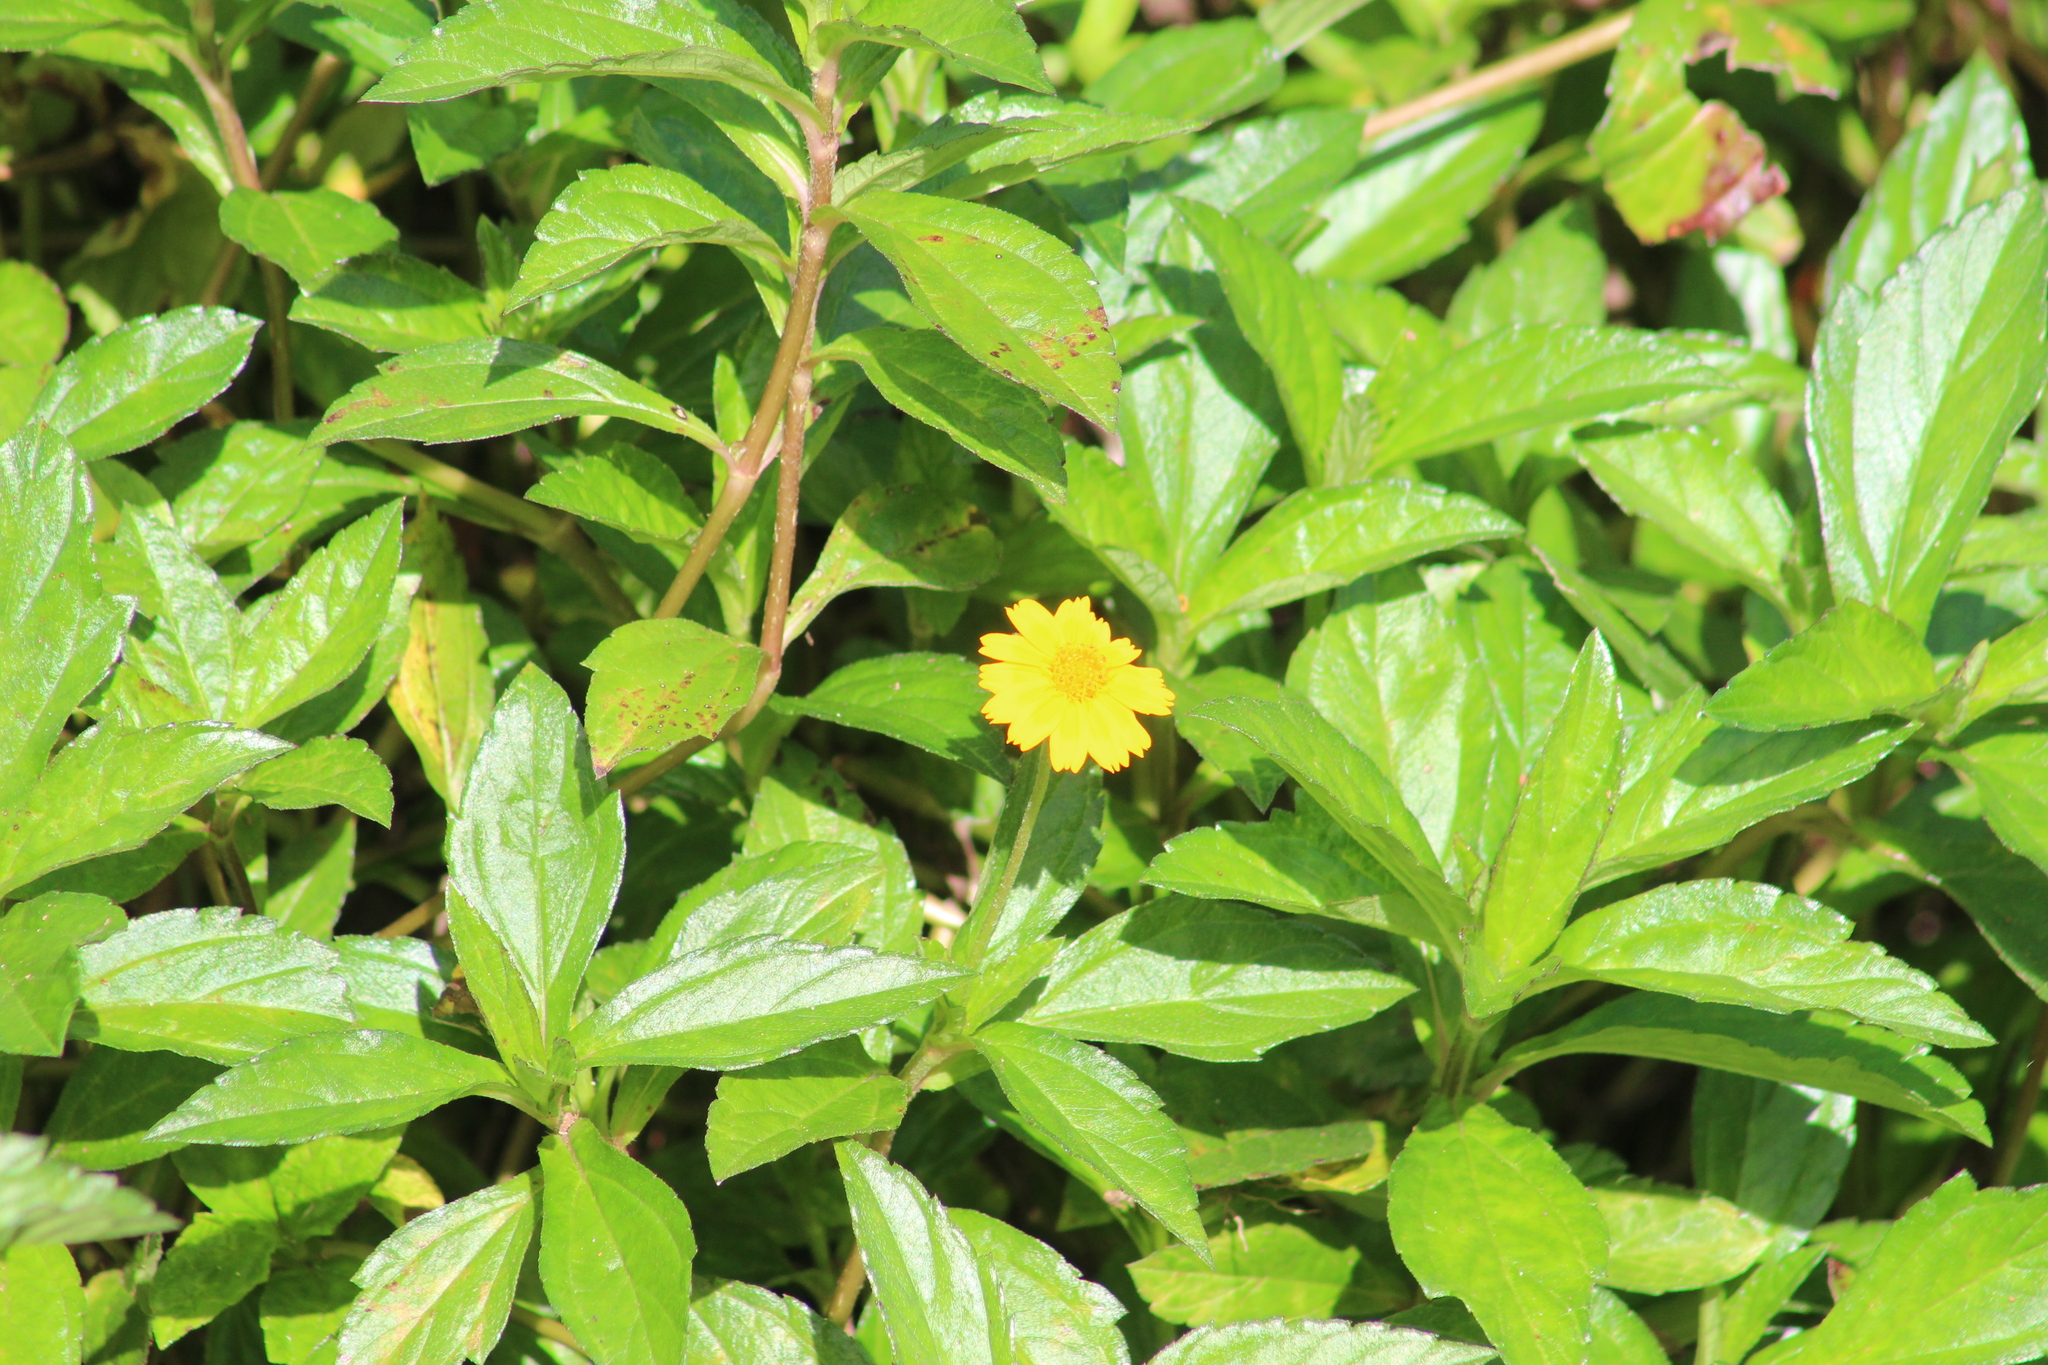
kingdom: Plantae
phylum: Tracheophyta
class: Magnoliopsida
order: Asterales
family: Asteraceae
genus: Sphagneticola
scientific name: Sphagneticola trilobata
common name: Bay biscayne creeping-oxeye
